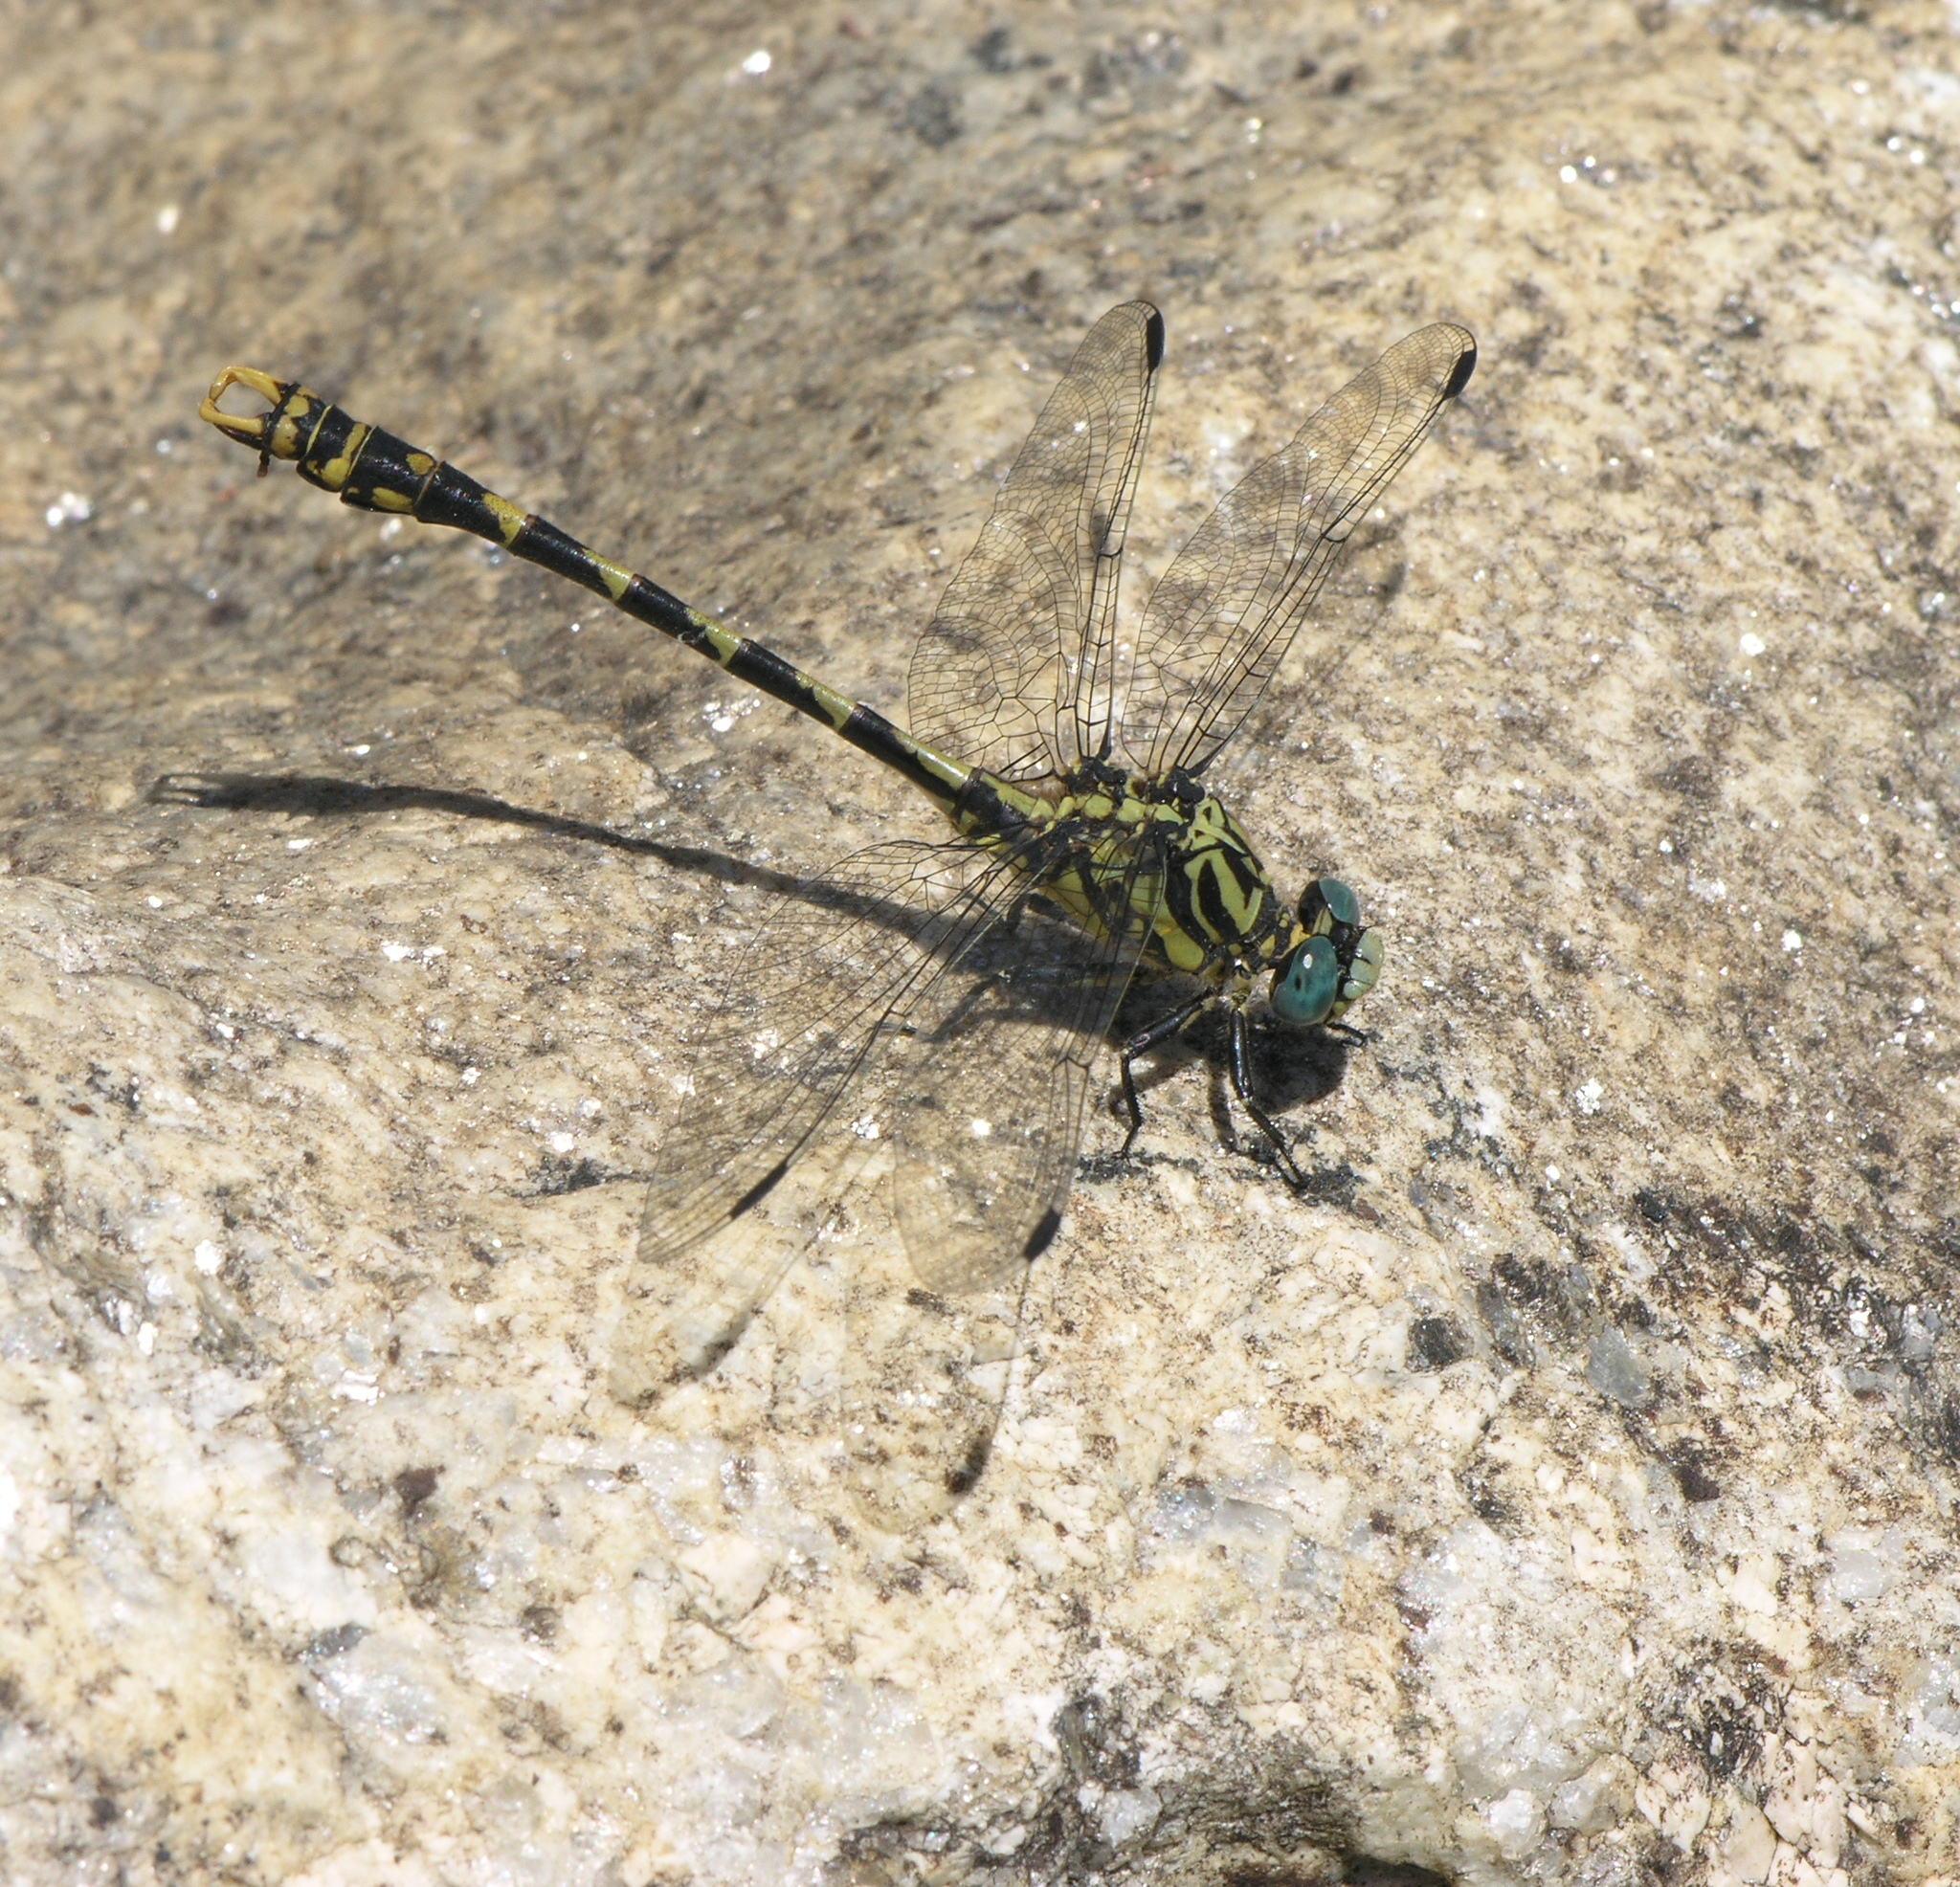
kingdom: Animalia
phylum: Arthropoda
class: Insecta
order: Odonata
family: Gomphidae
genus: Onychogomphus
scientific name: Onychogomphus uncatus
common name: Large pincertail
